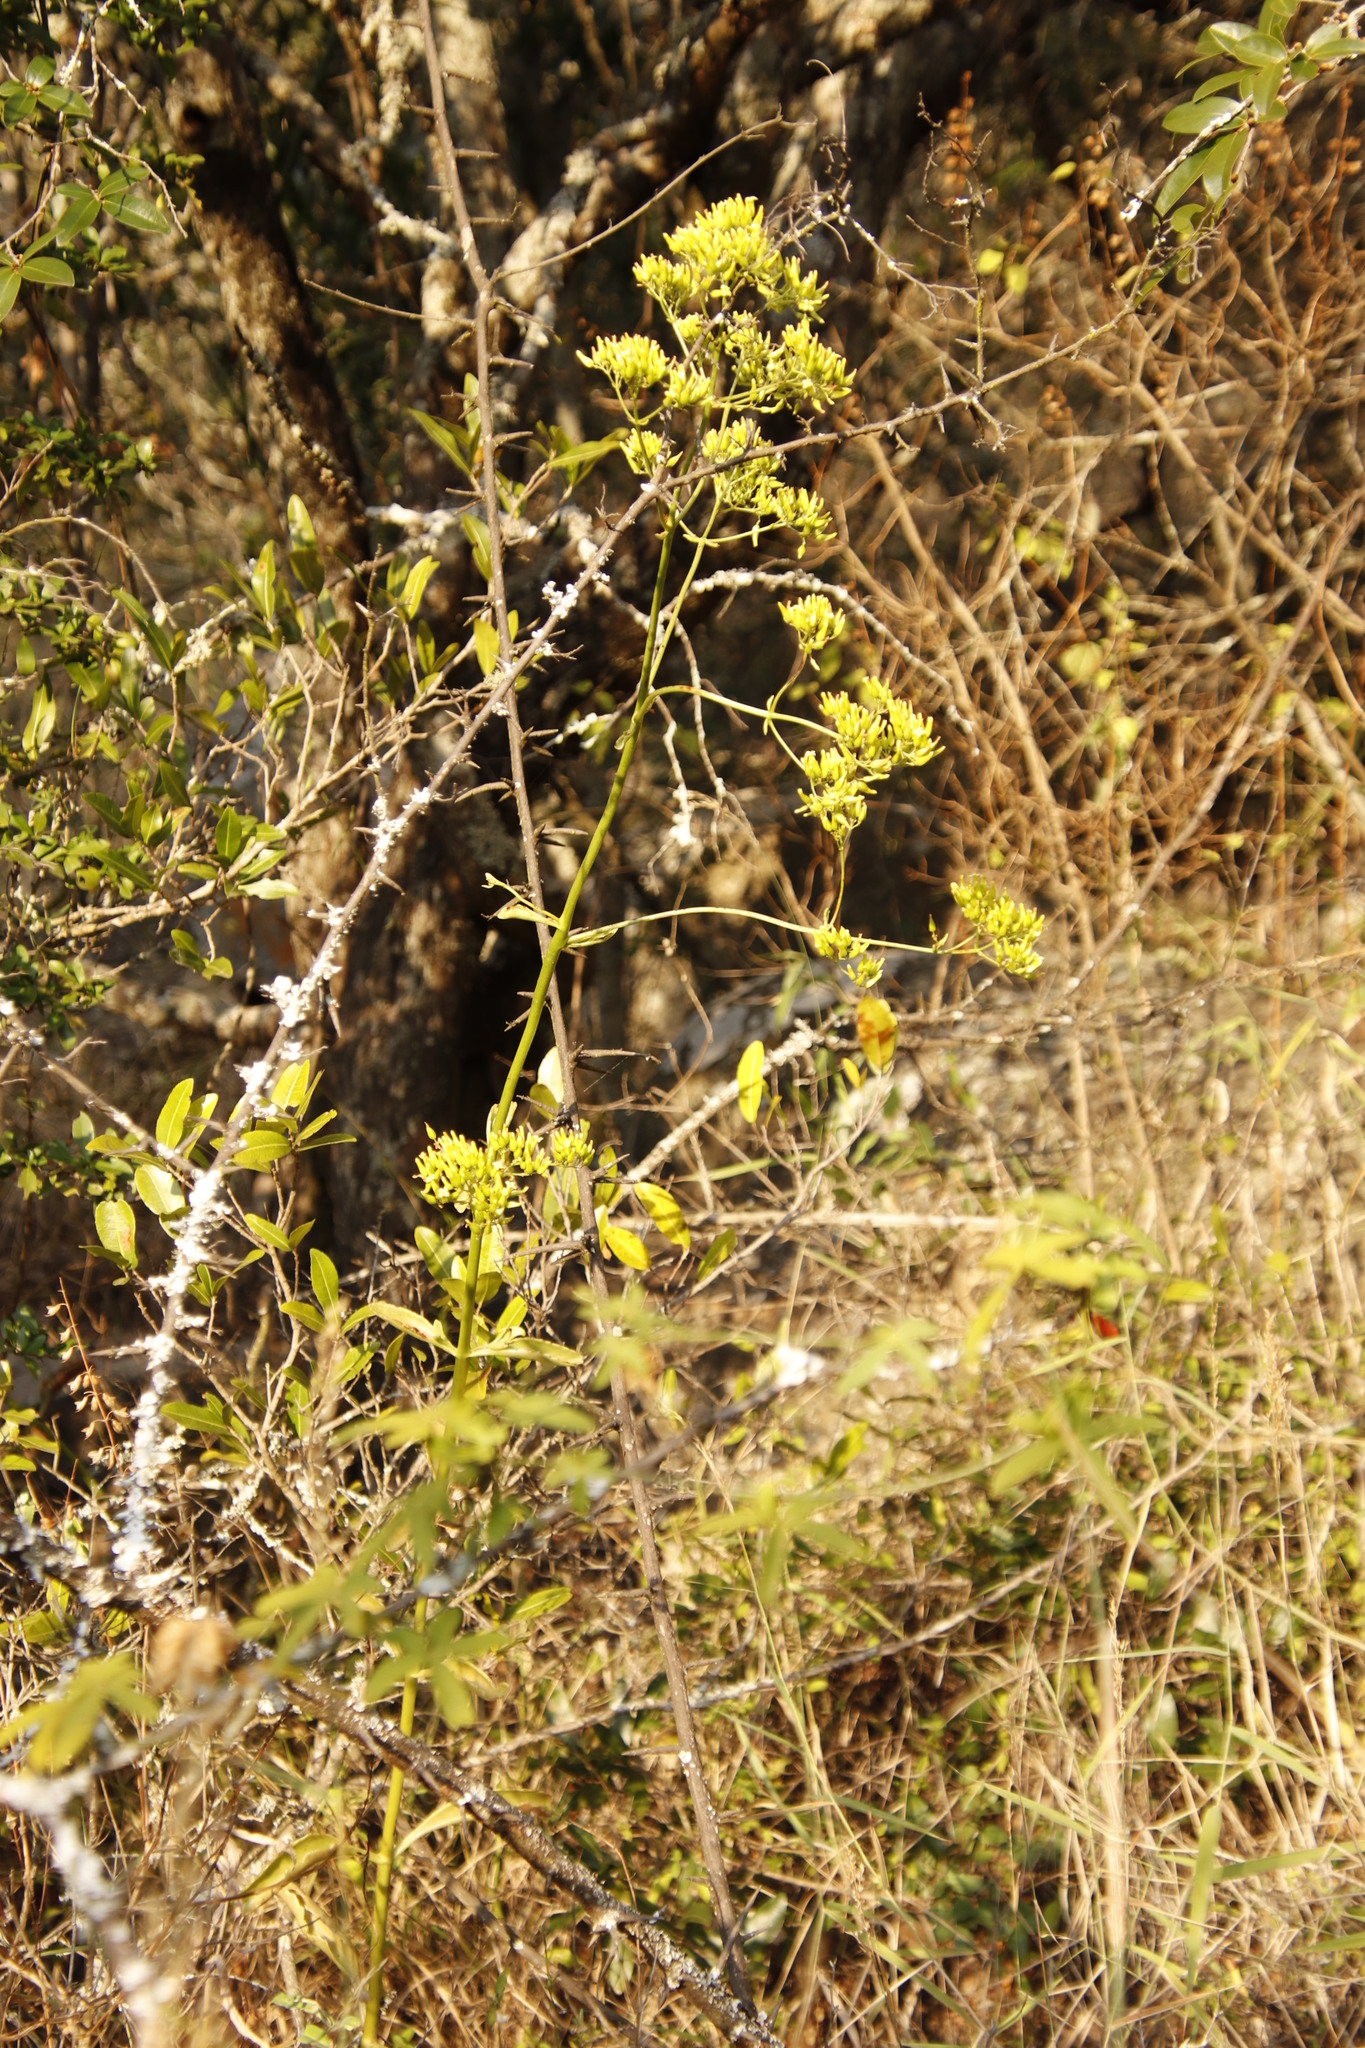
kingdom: Plantae
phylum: Tracheophyta
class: Magnoliopsida
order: Saxifragales
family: Crassulaceae
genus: Kalanchoe
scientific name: Kalanchoe brachyloba
